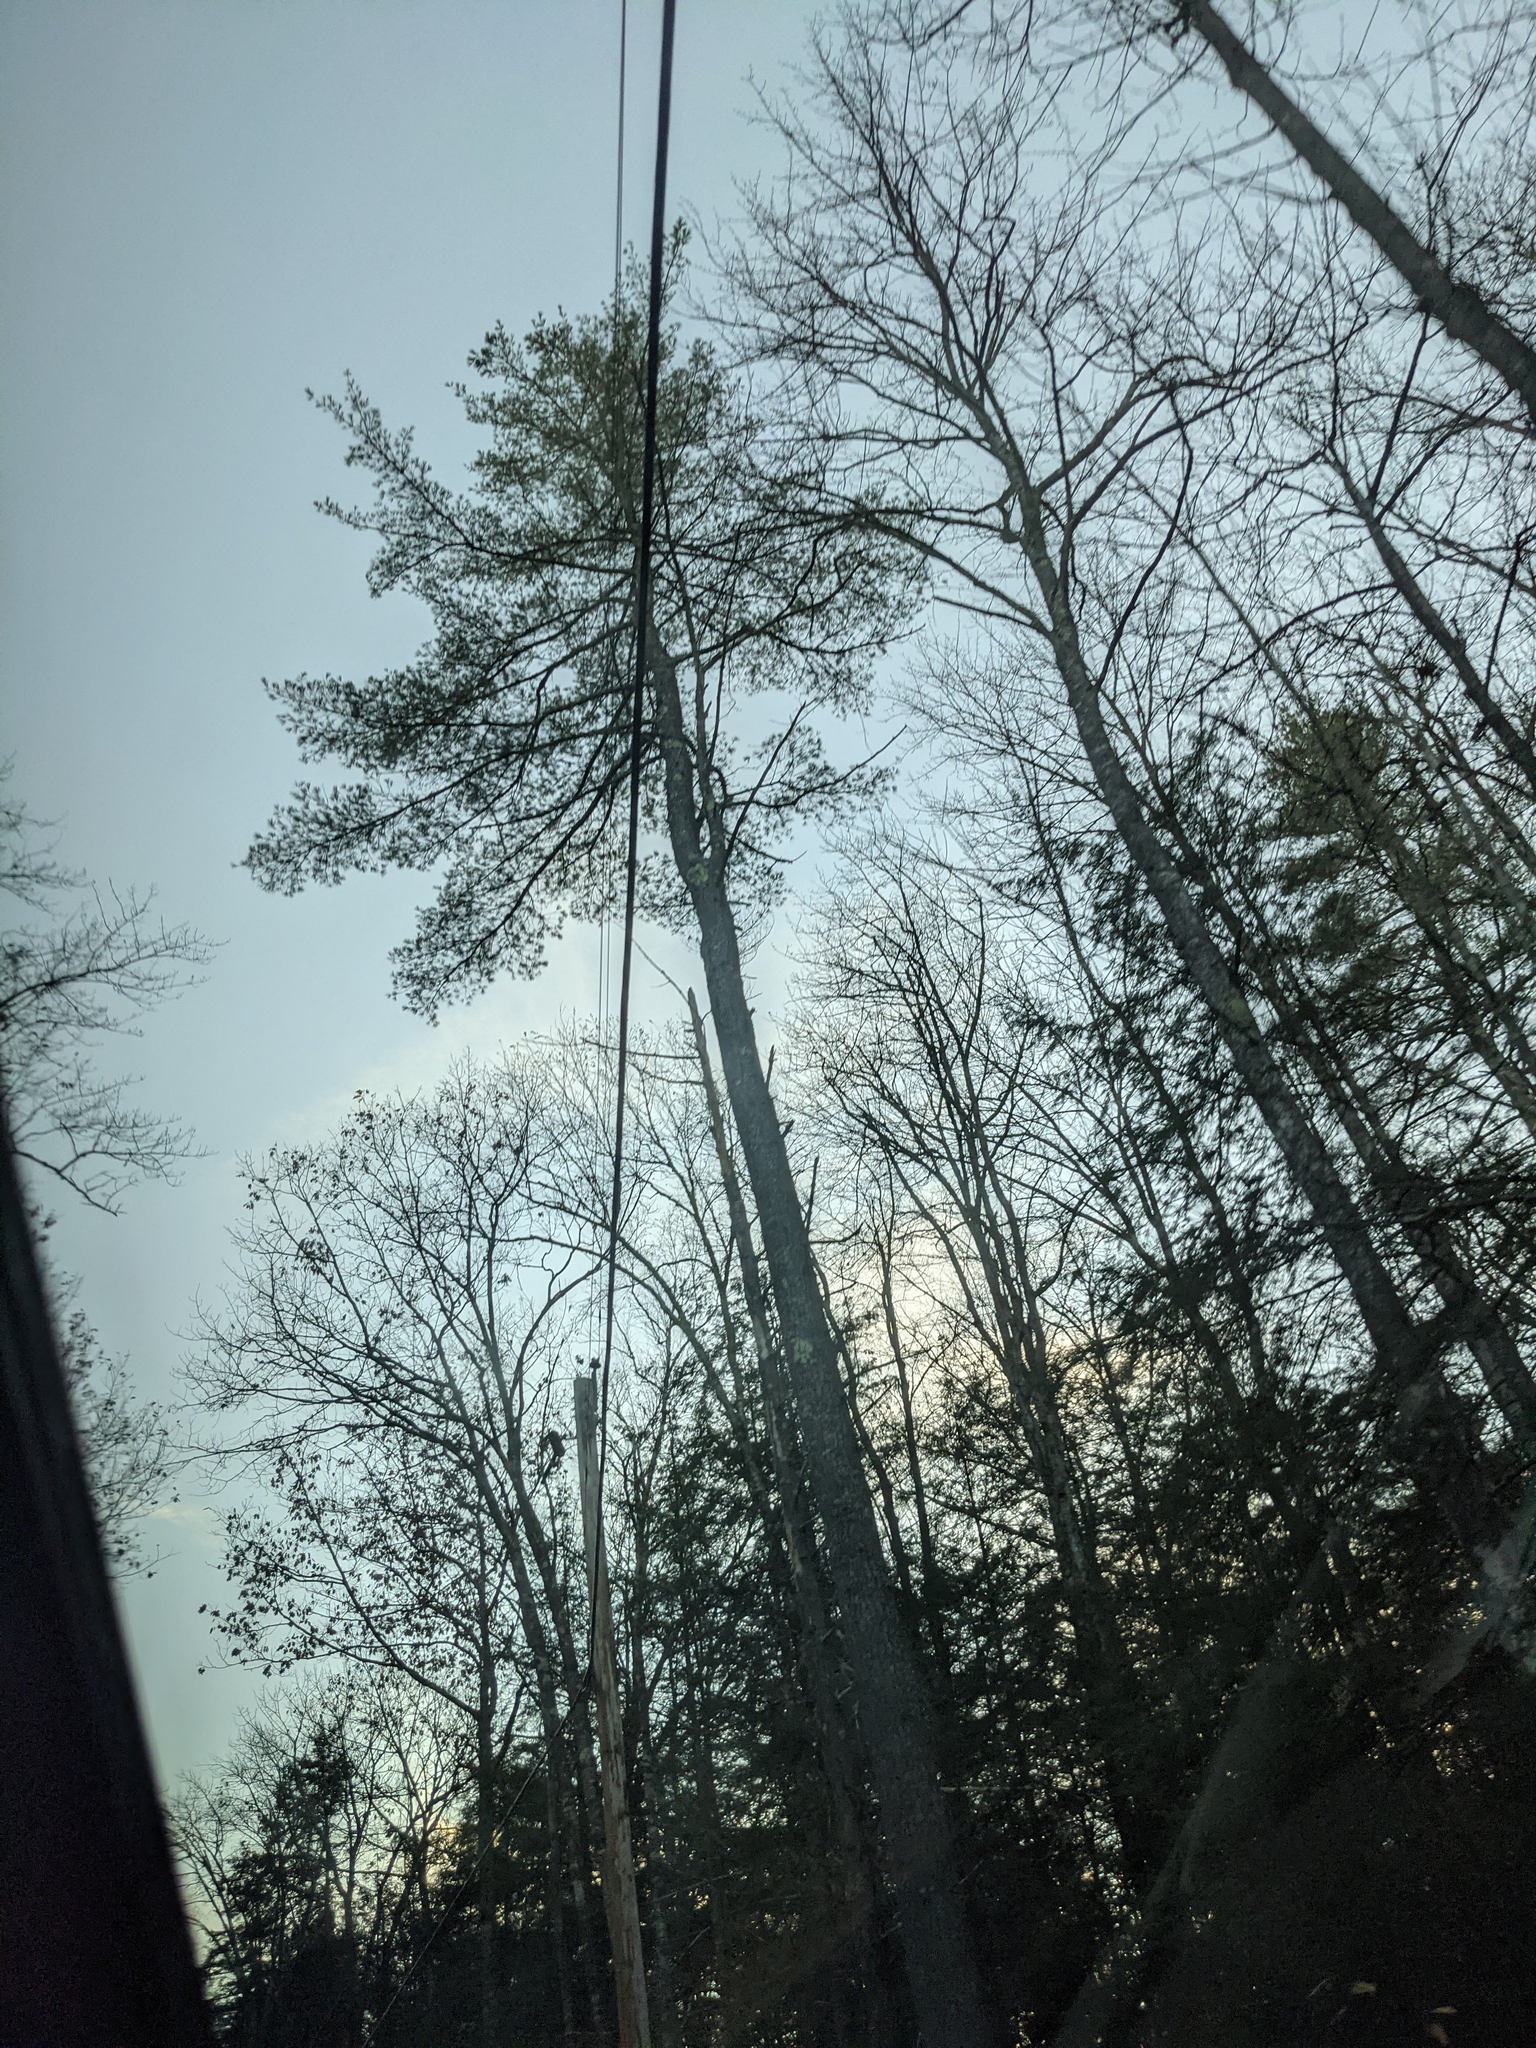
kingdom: Plantae
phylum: Tracheophyta
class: Pinopsida
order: Pinales
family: Pinaceae
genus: Pinus
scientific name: Pinus strobus
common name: Weymouth pine
